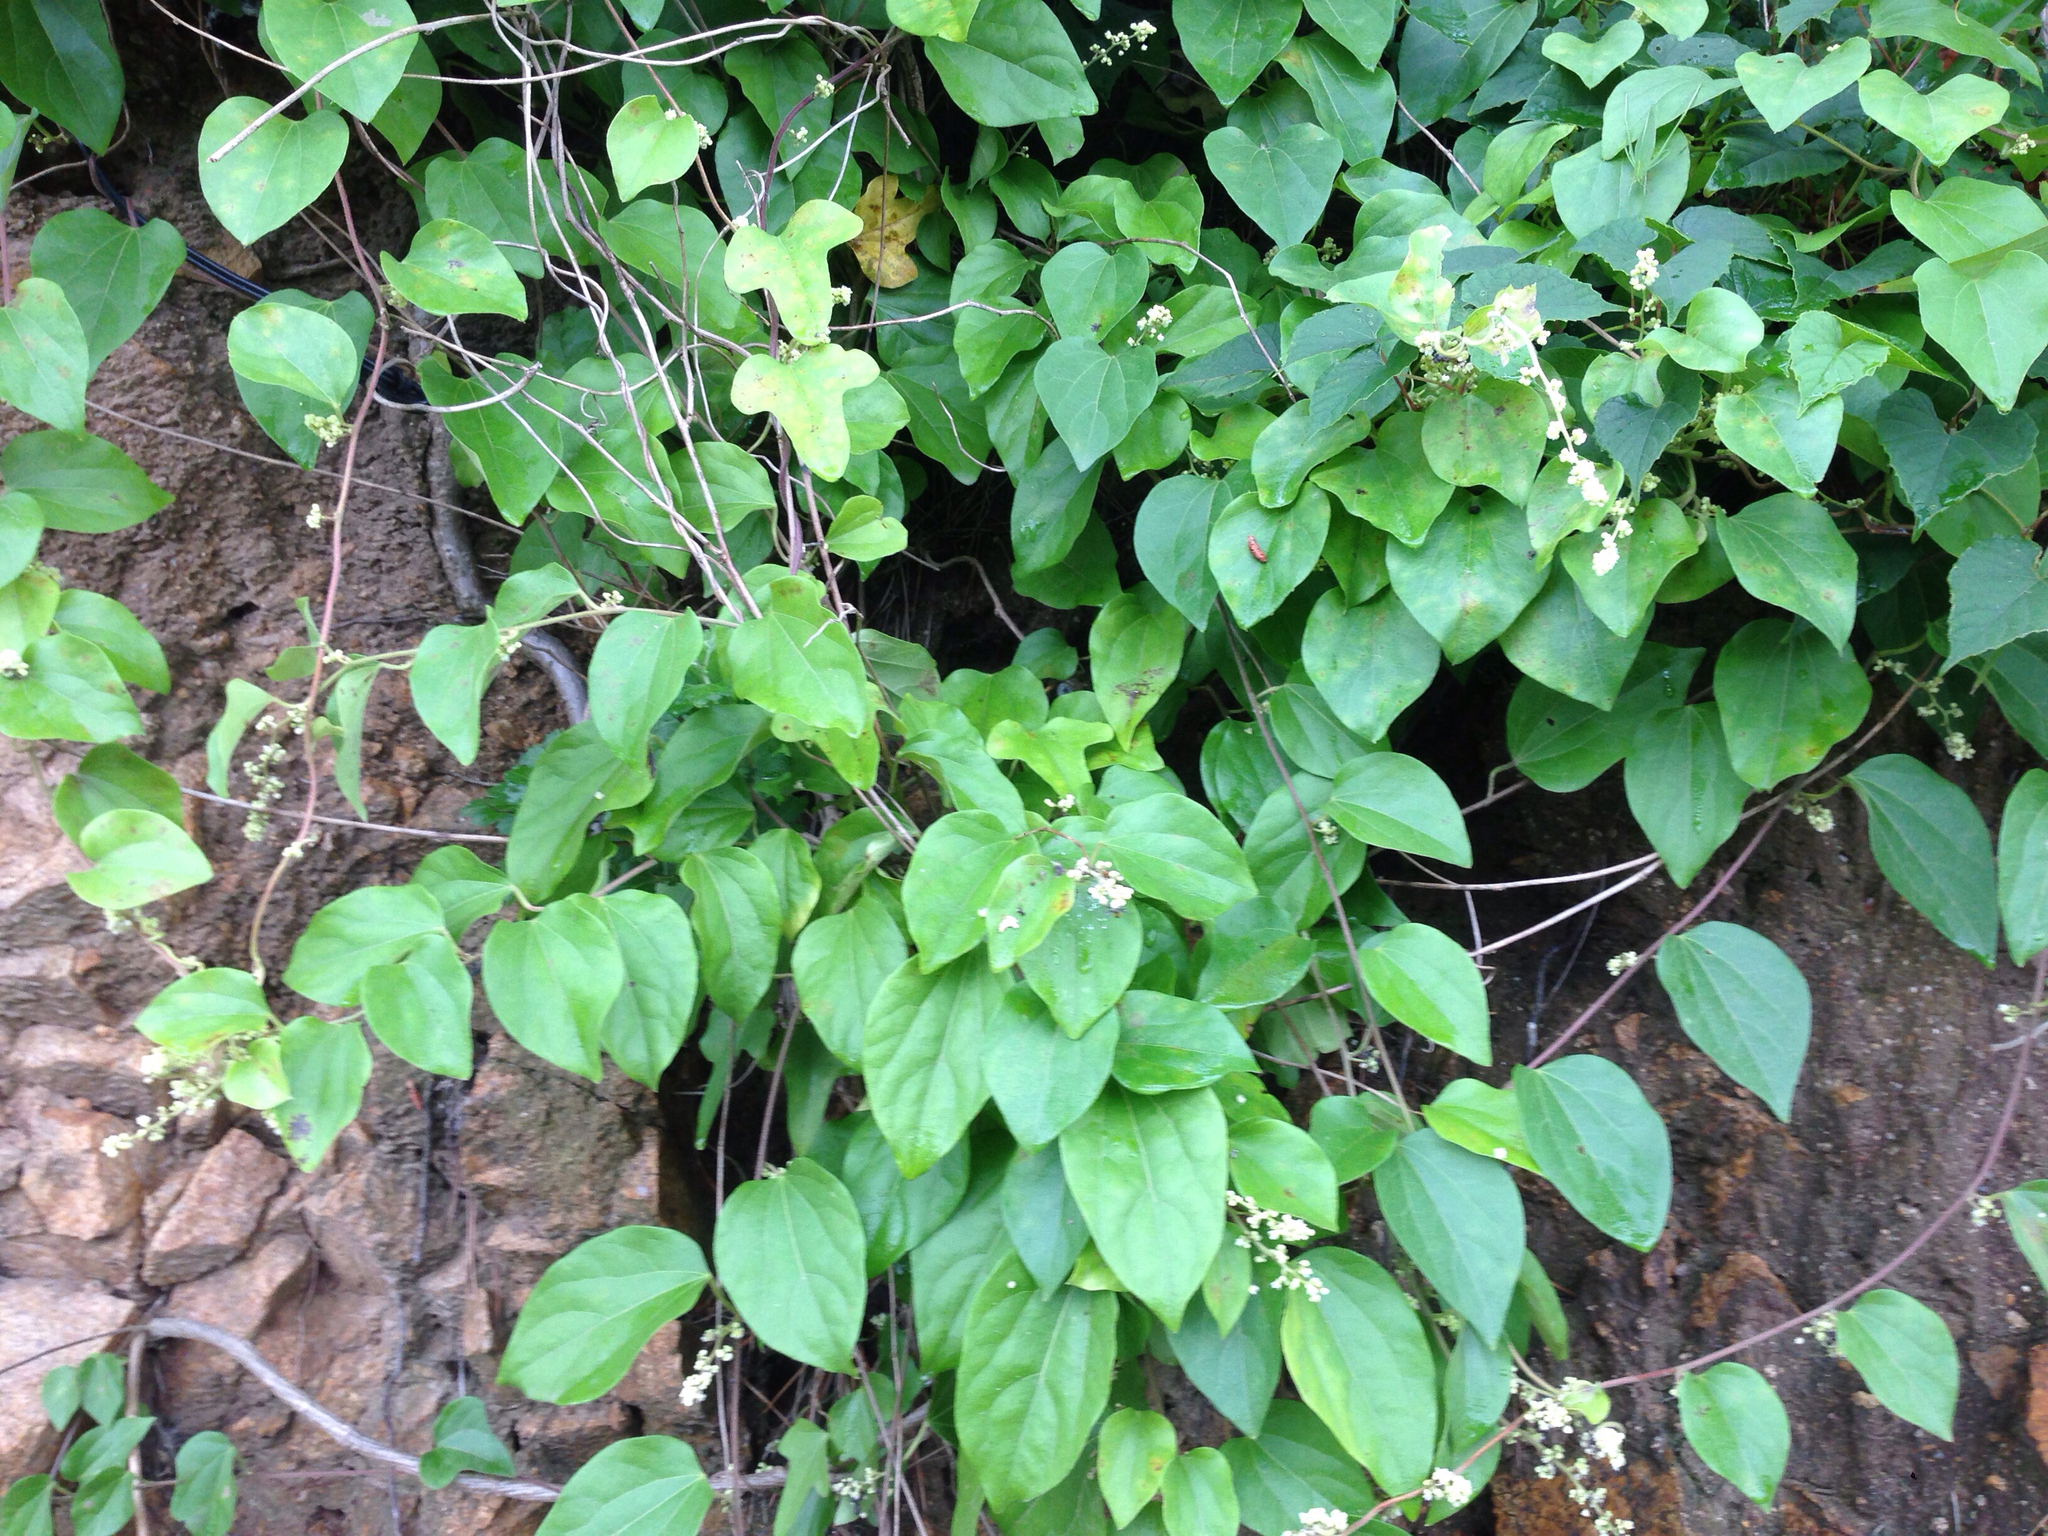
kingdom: Plantae
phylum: Tracheophyta
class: Magnoliopsida
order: Ranunculales
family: Menispermaceae
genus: Cocculus
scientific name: Cocculus orbiculatus
